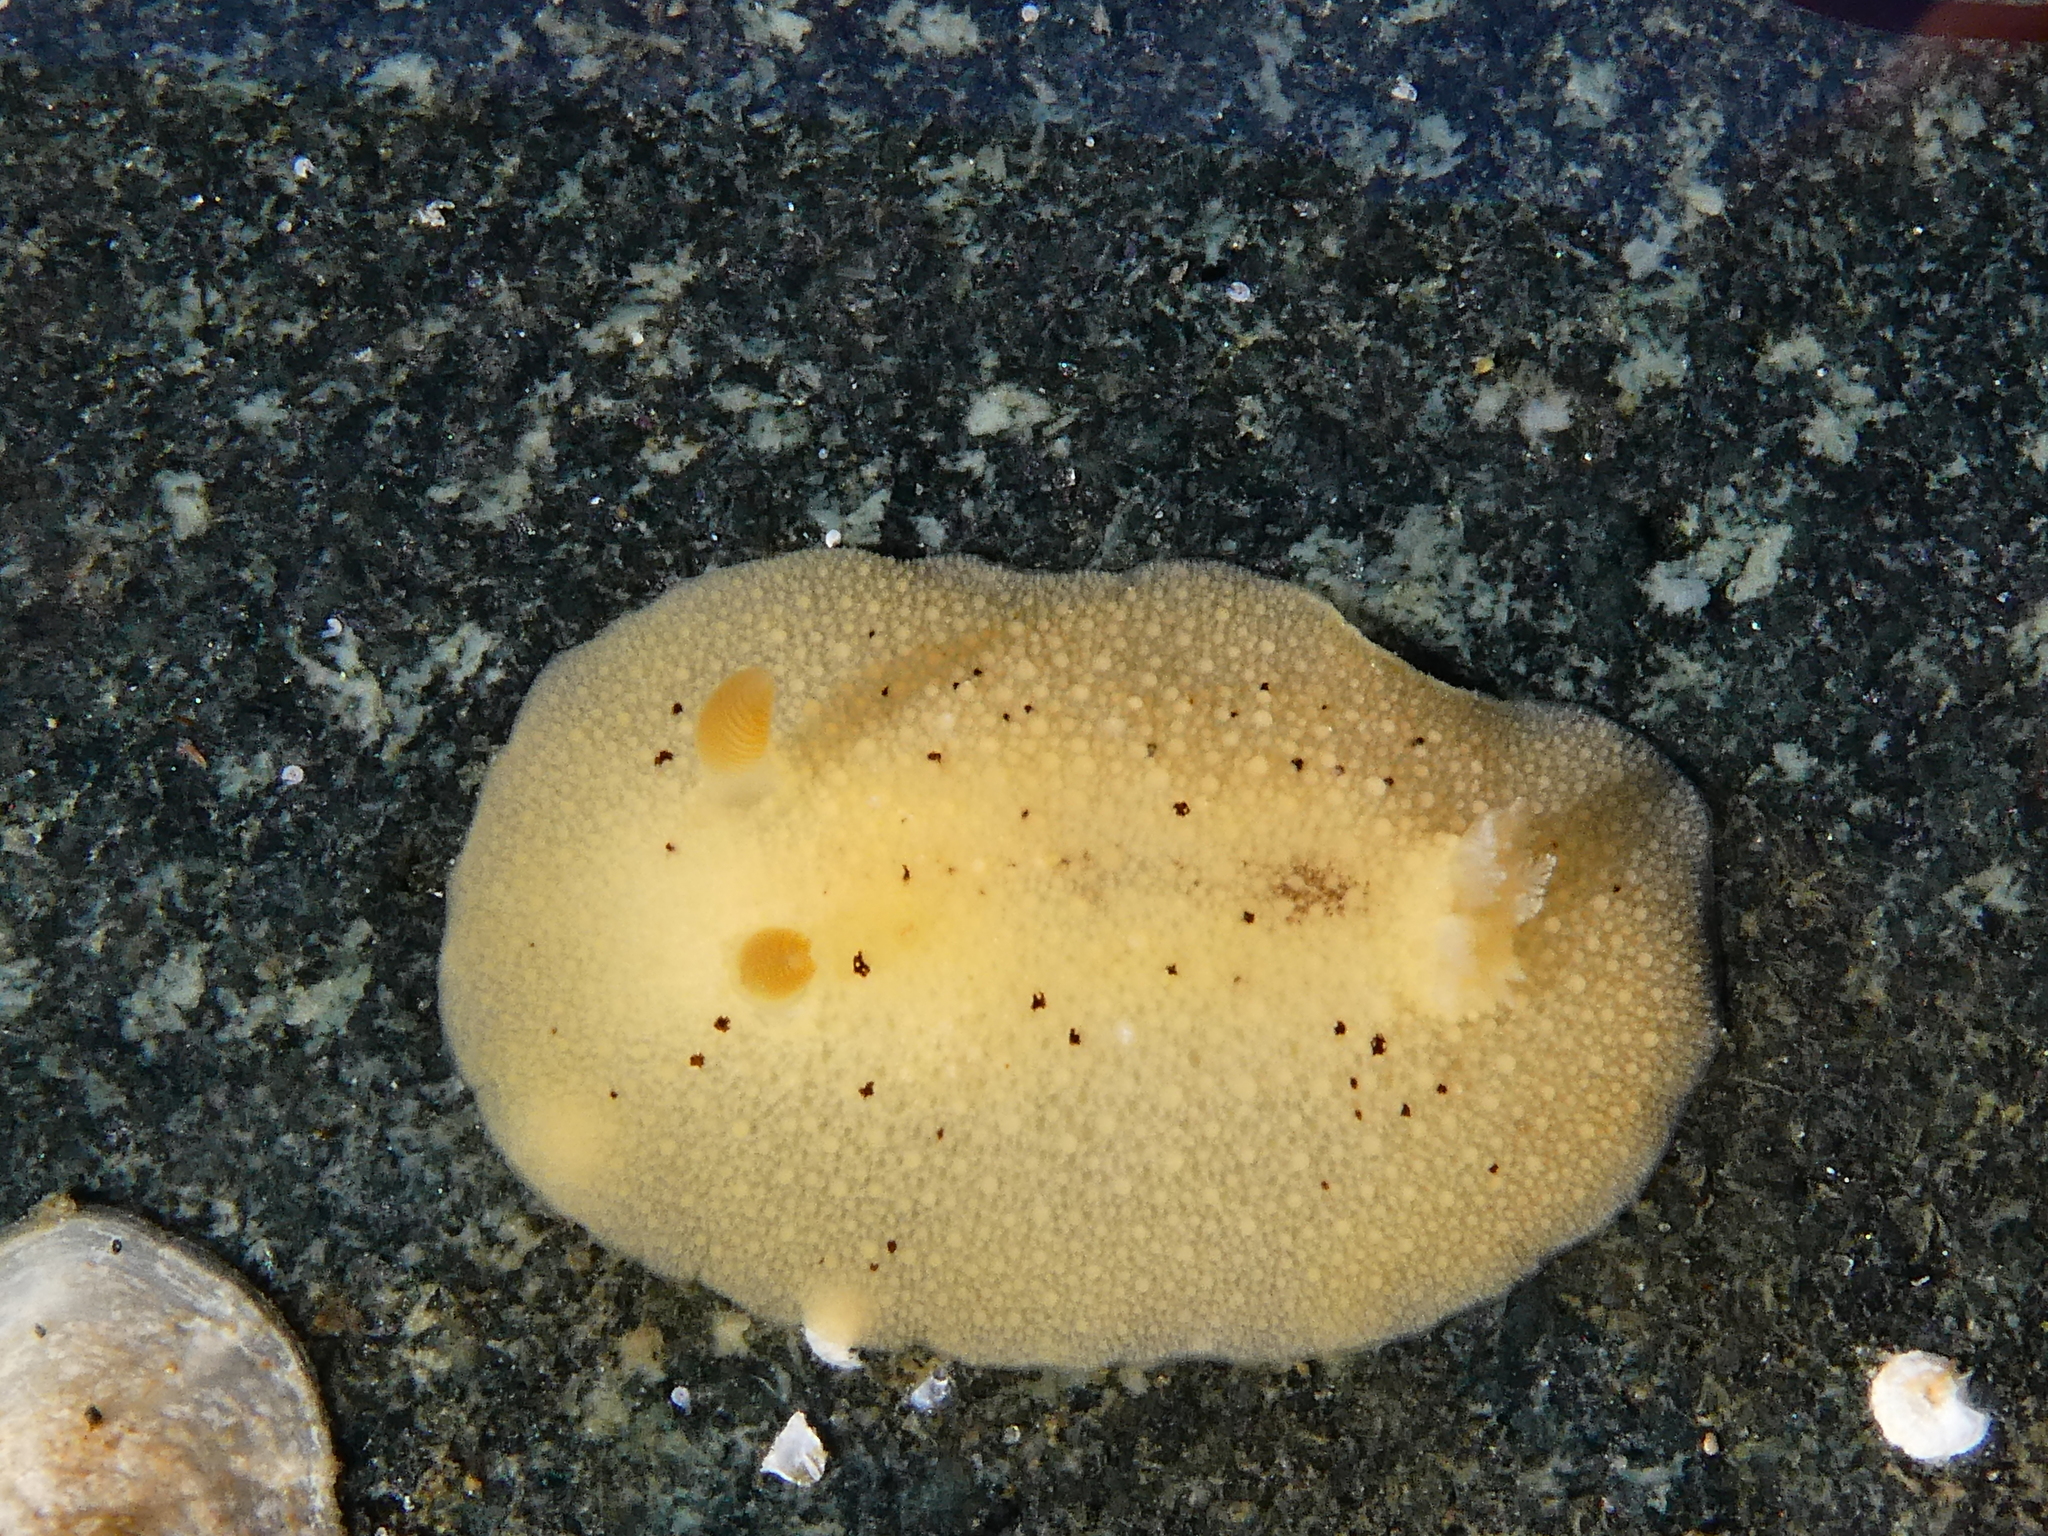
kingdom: Animalia
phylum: Mollusca
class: Gastropoda
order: Nudibranchia
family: Discodorididae
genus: Geitodoris
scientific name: Geitodoris heathi
